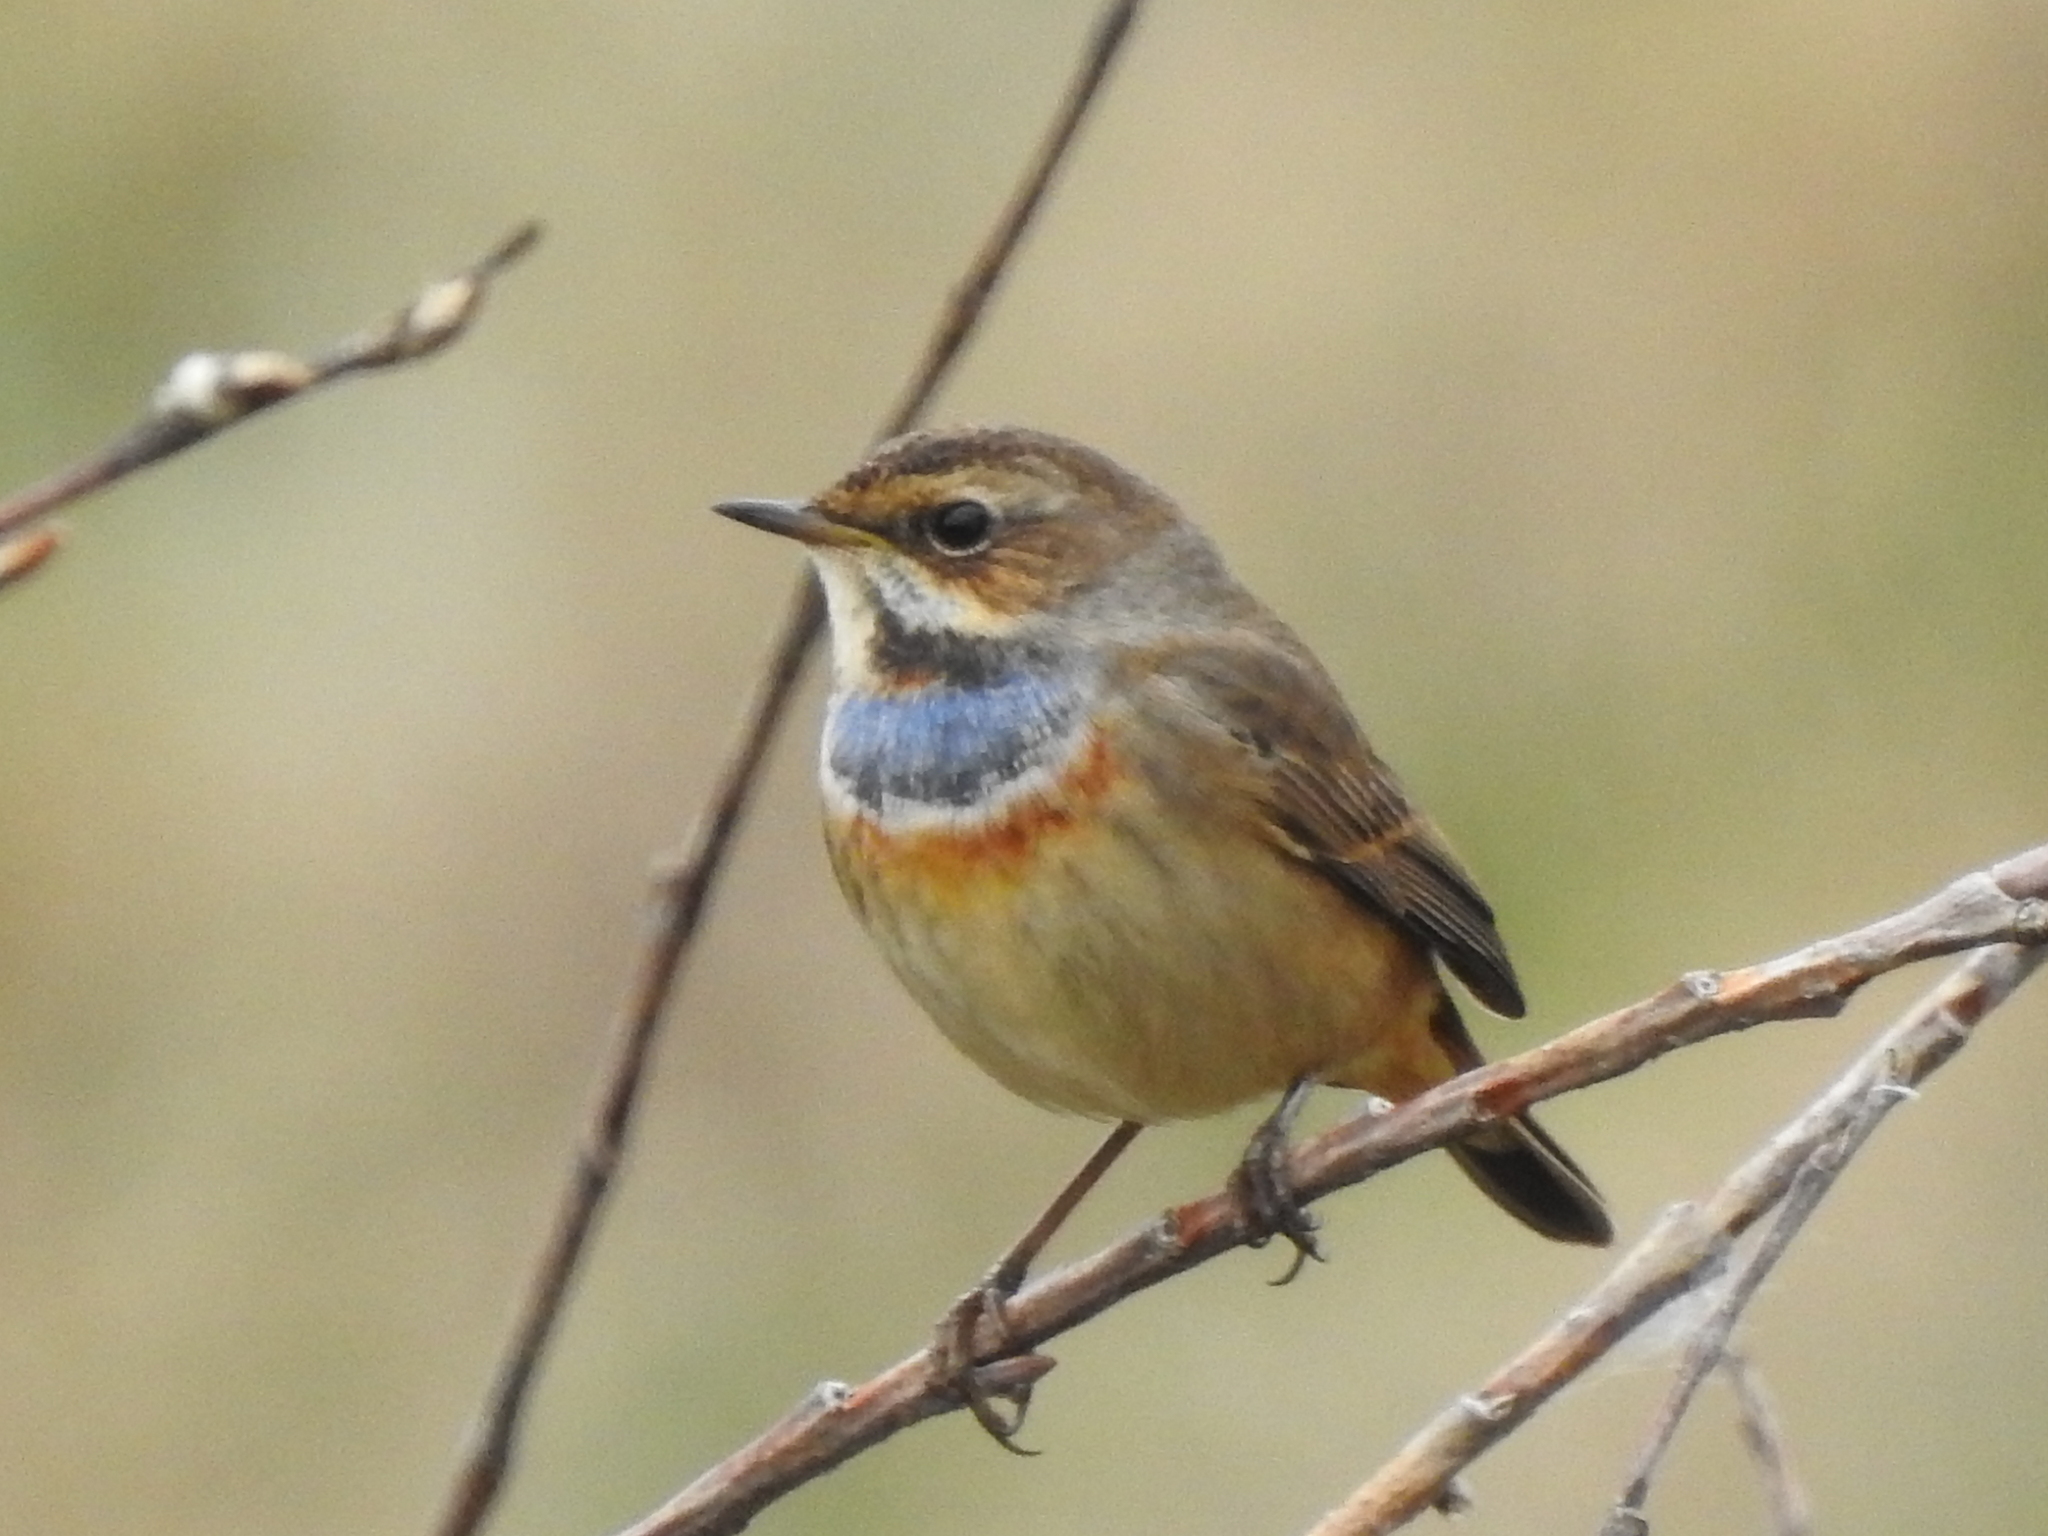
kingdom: Animalia
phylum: Chordata
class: Aves
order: Passeriformes
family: Muscicapidae
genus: Luscinia
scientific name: Luscinia svecica
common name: Bluethroat
